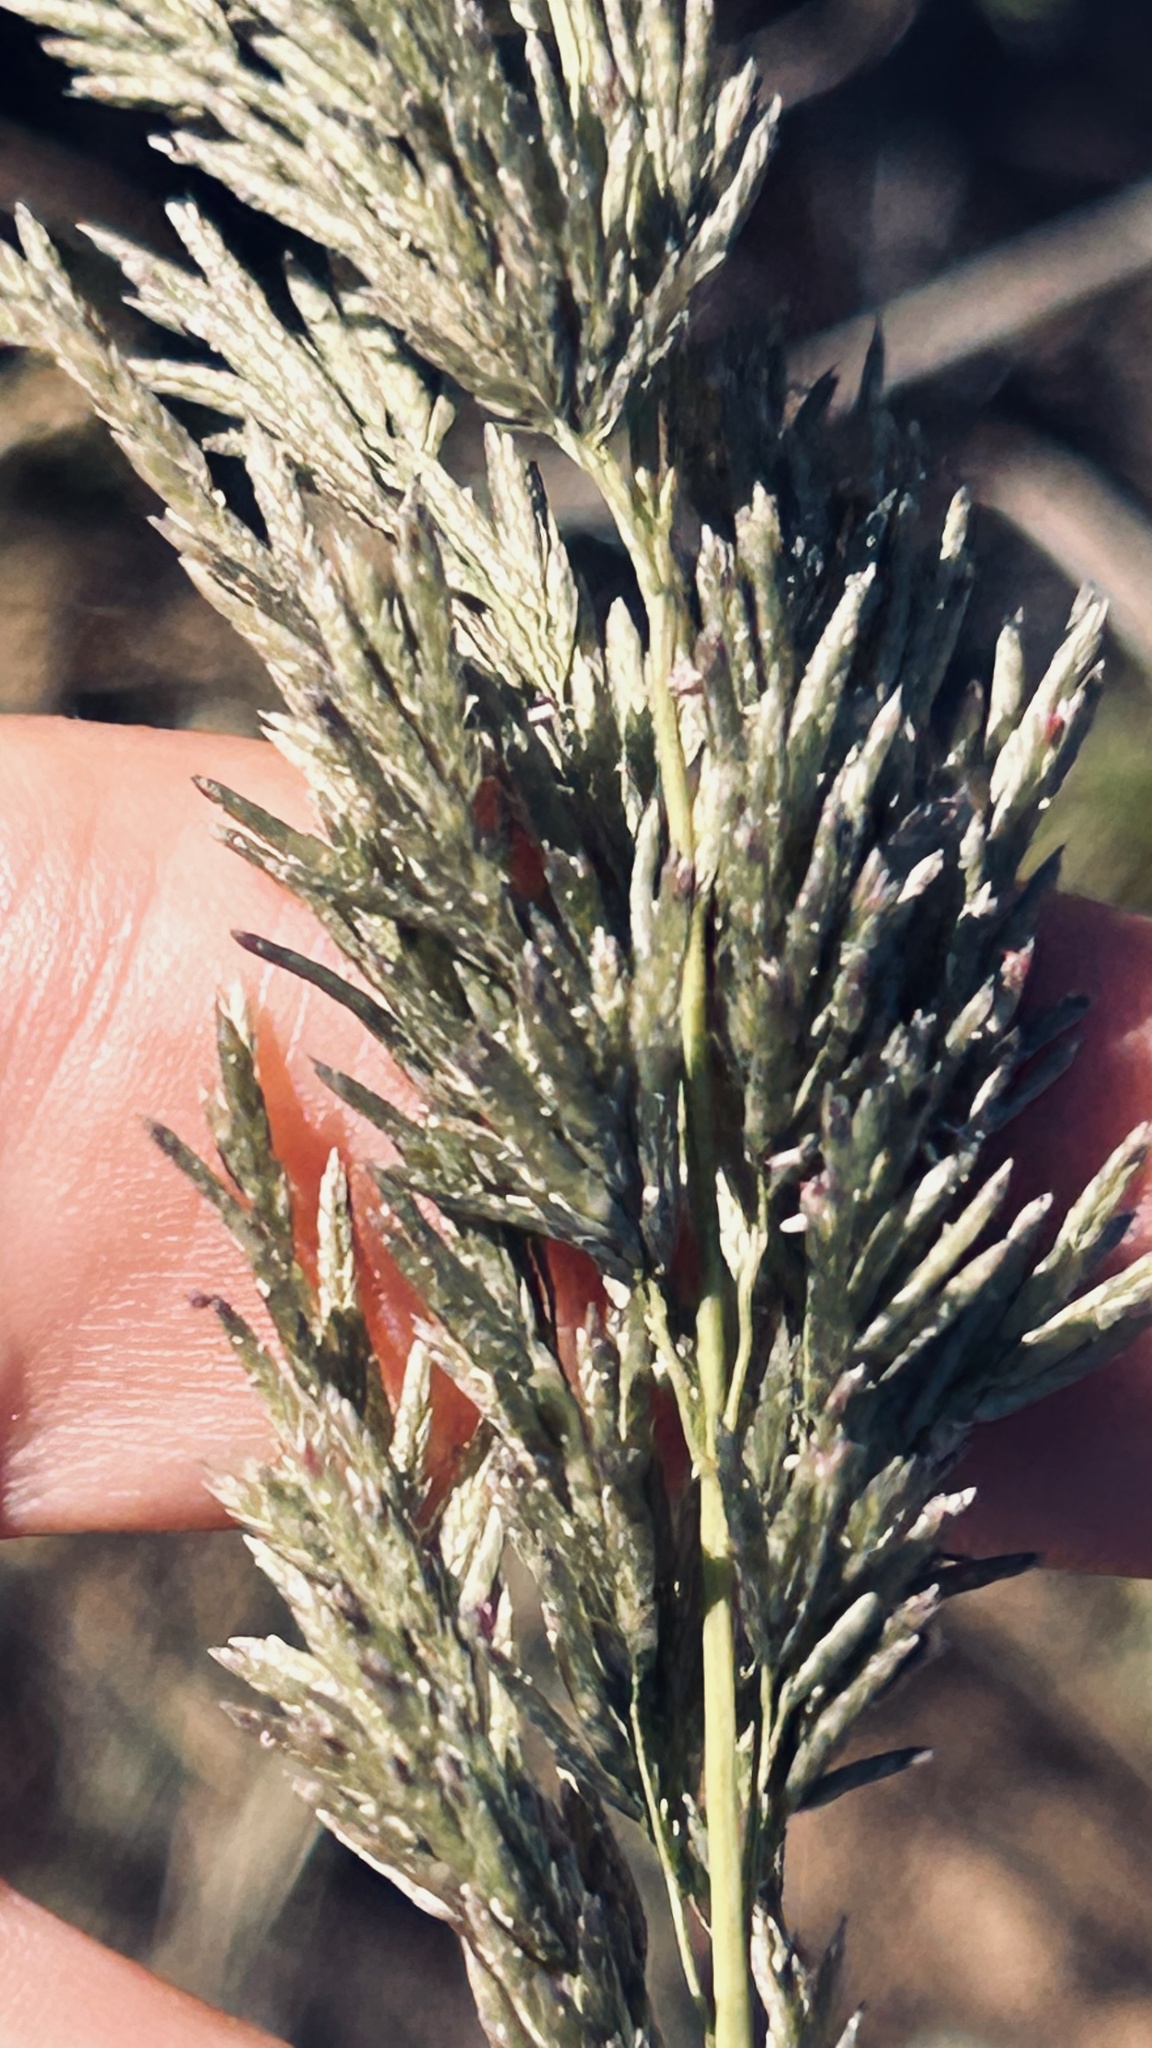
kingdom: Plantae
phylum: Tracheophyta
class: Liliopsida
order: Poales
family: Poaceae
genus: Eragrostis
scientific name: Eragrostis curvula
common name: African love-grass
